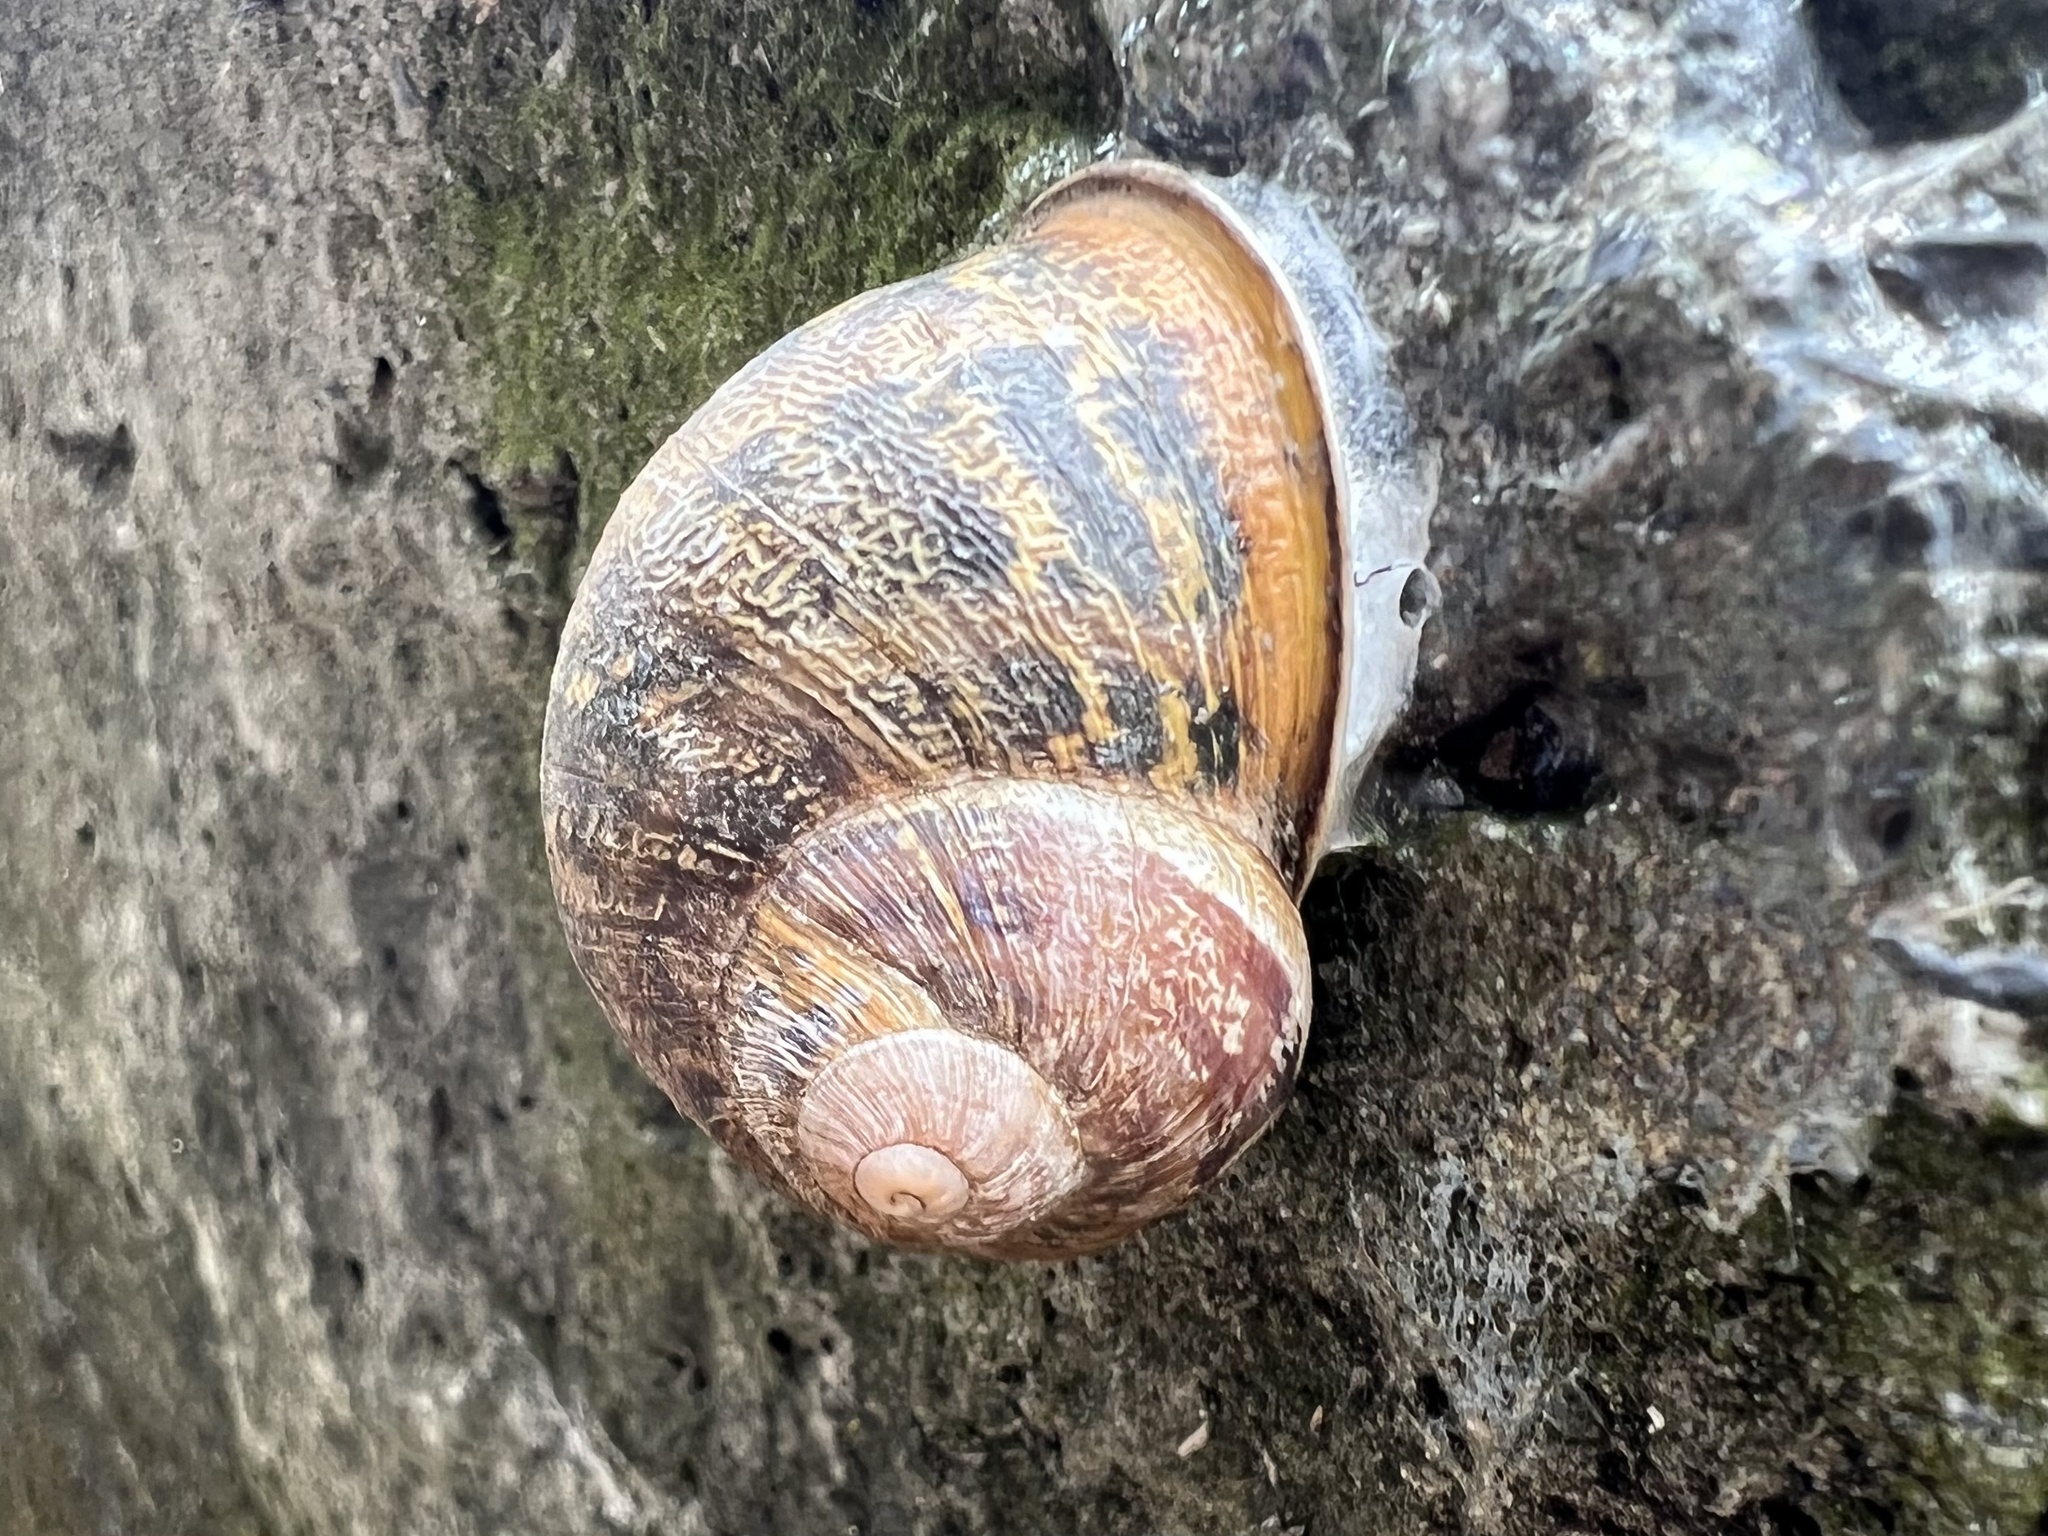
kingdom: Animalia
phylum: Mollusca
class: Gastropoda
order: Stylommatophora
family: Helicidae
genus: Cornu
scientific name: Cornu aspersum
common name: Brown garden snail
